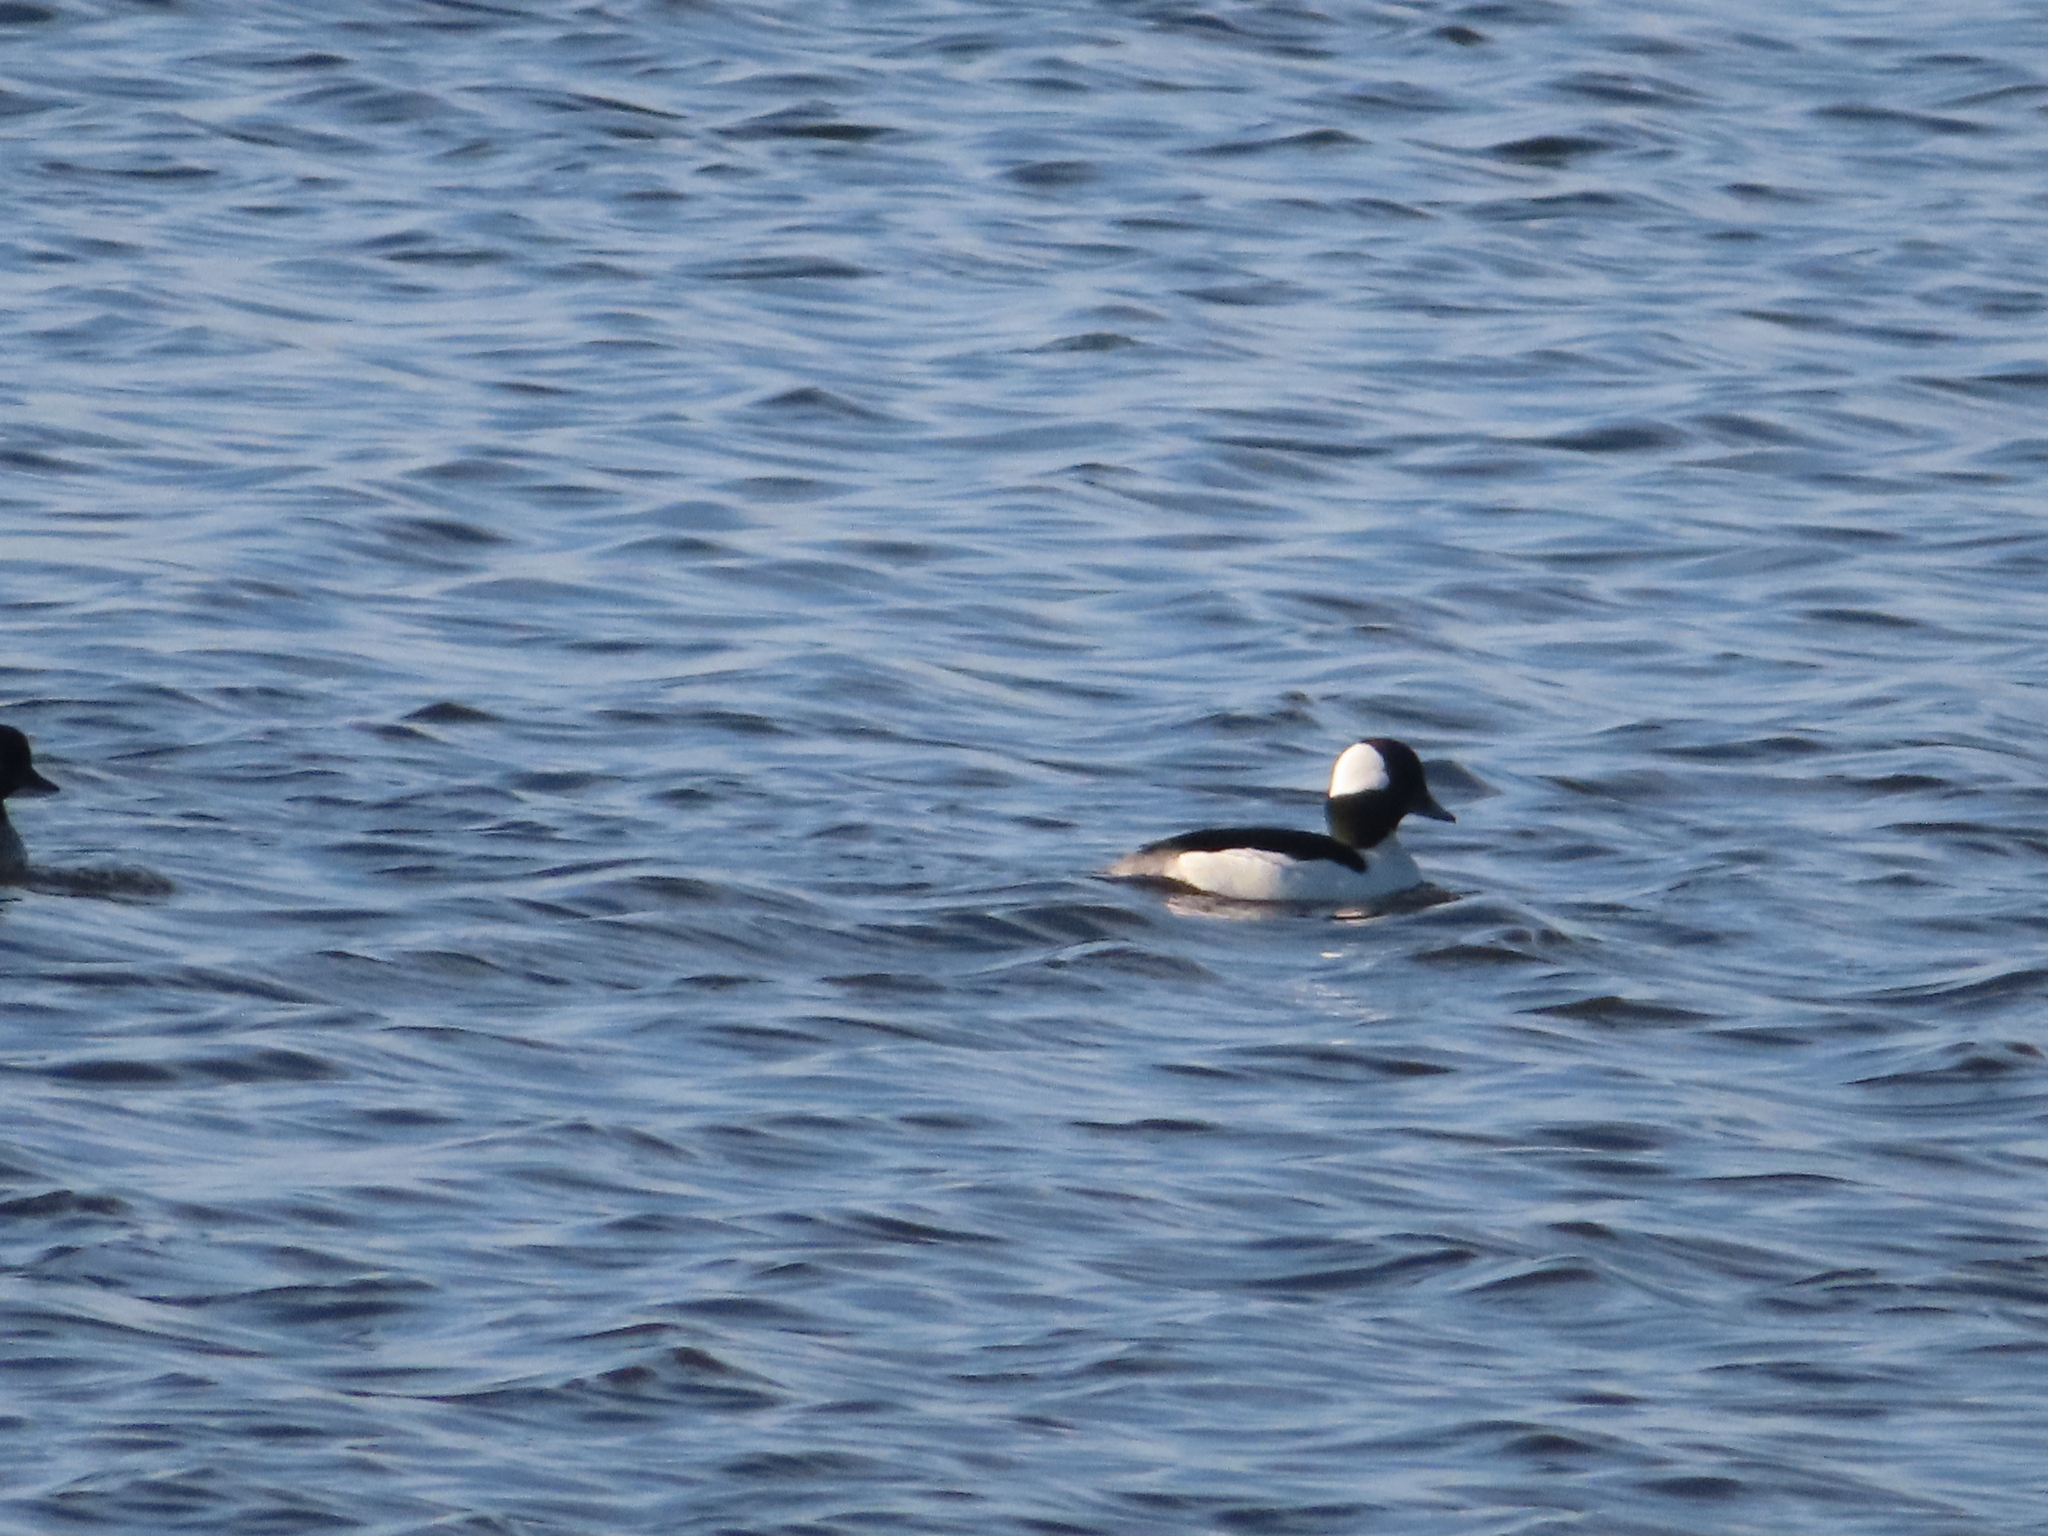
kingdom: Animalia
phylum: Chordata
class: Aves
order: Anseriformes
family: Anatidae
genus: Bucephala
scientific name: Bucephala albeola
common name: Bufflehead
